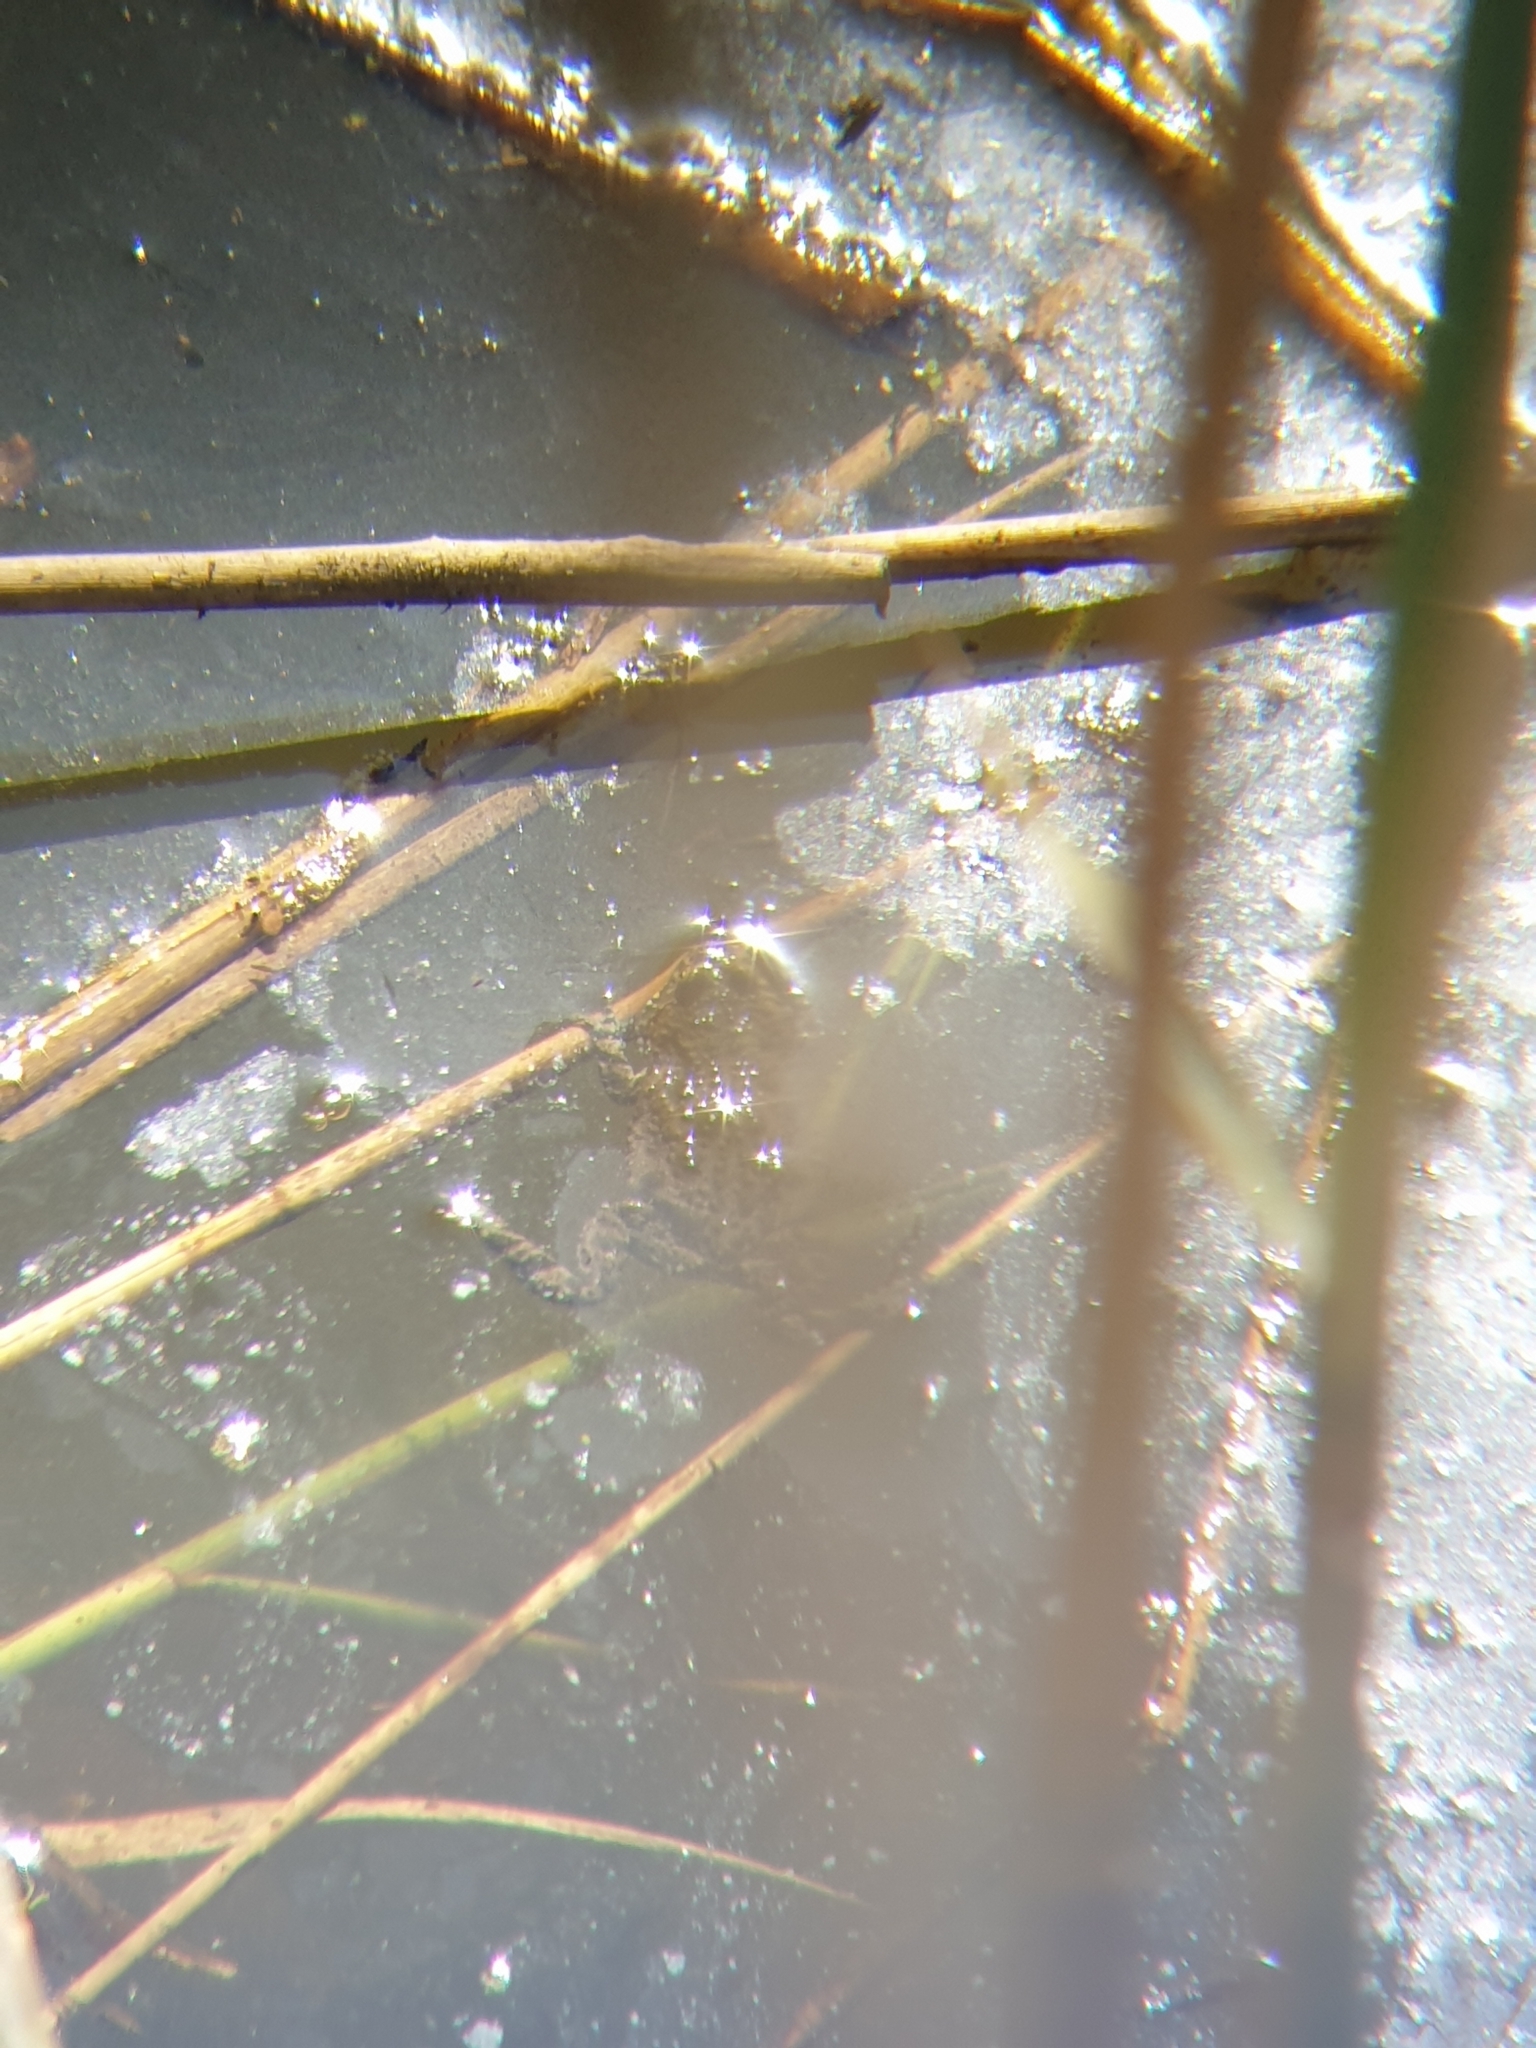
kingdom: Animalia
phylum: Chordata
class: Amphibia
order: Anura
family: Bombinatoridae
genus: Bombina
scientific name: Bombina bombina
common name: Fire-bellied toad
